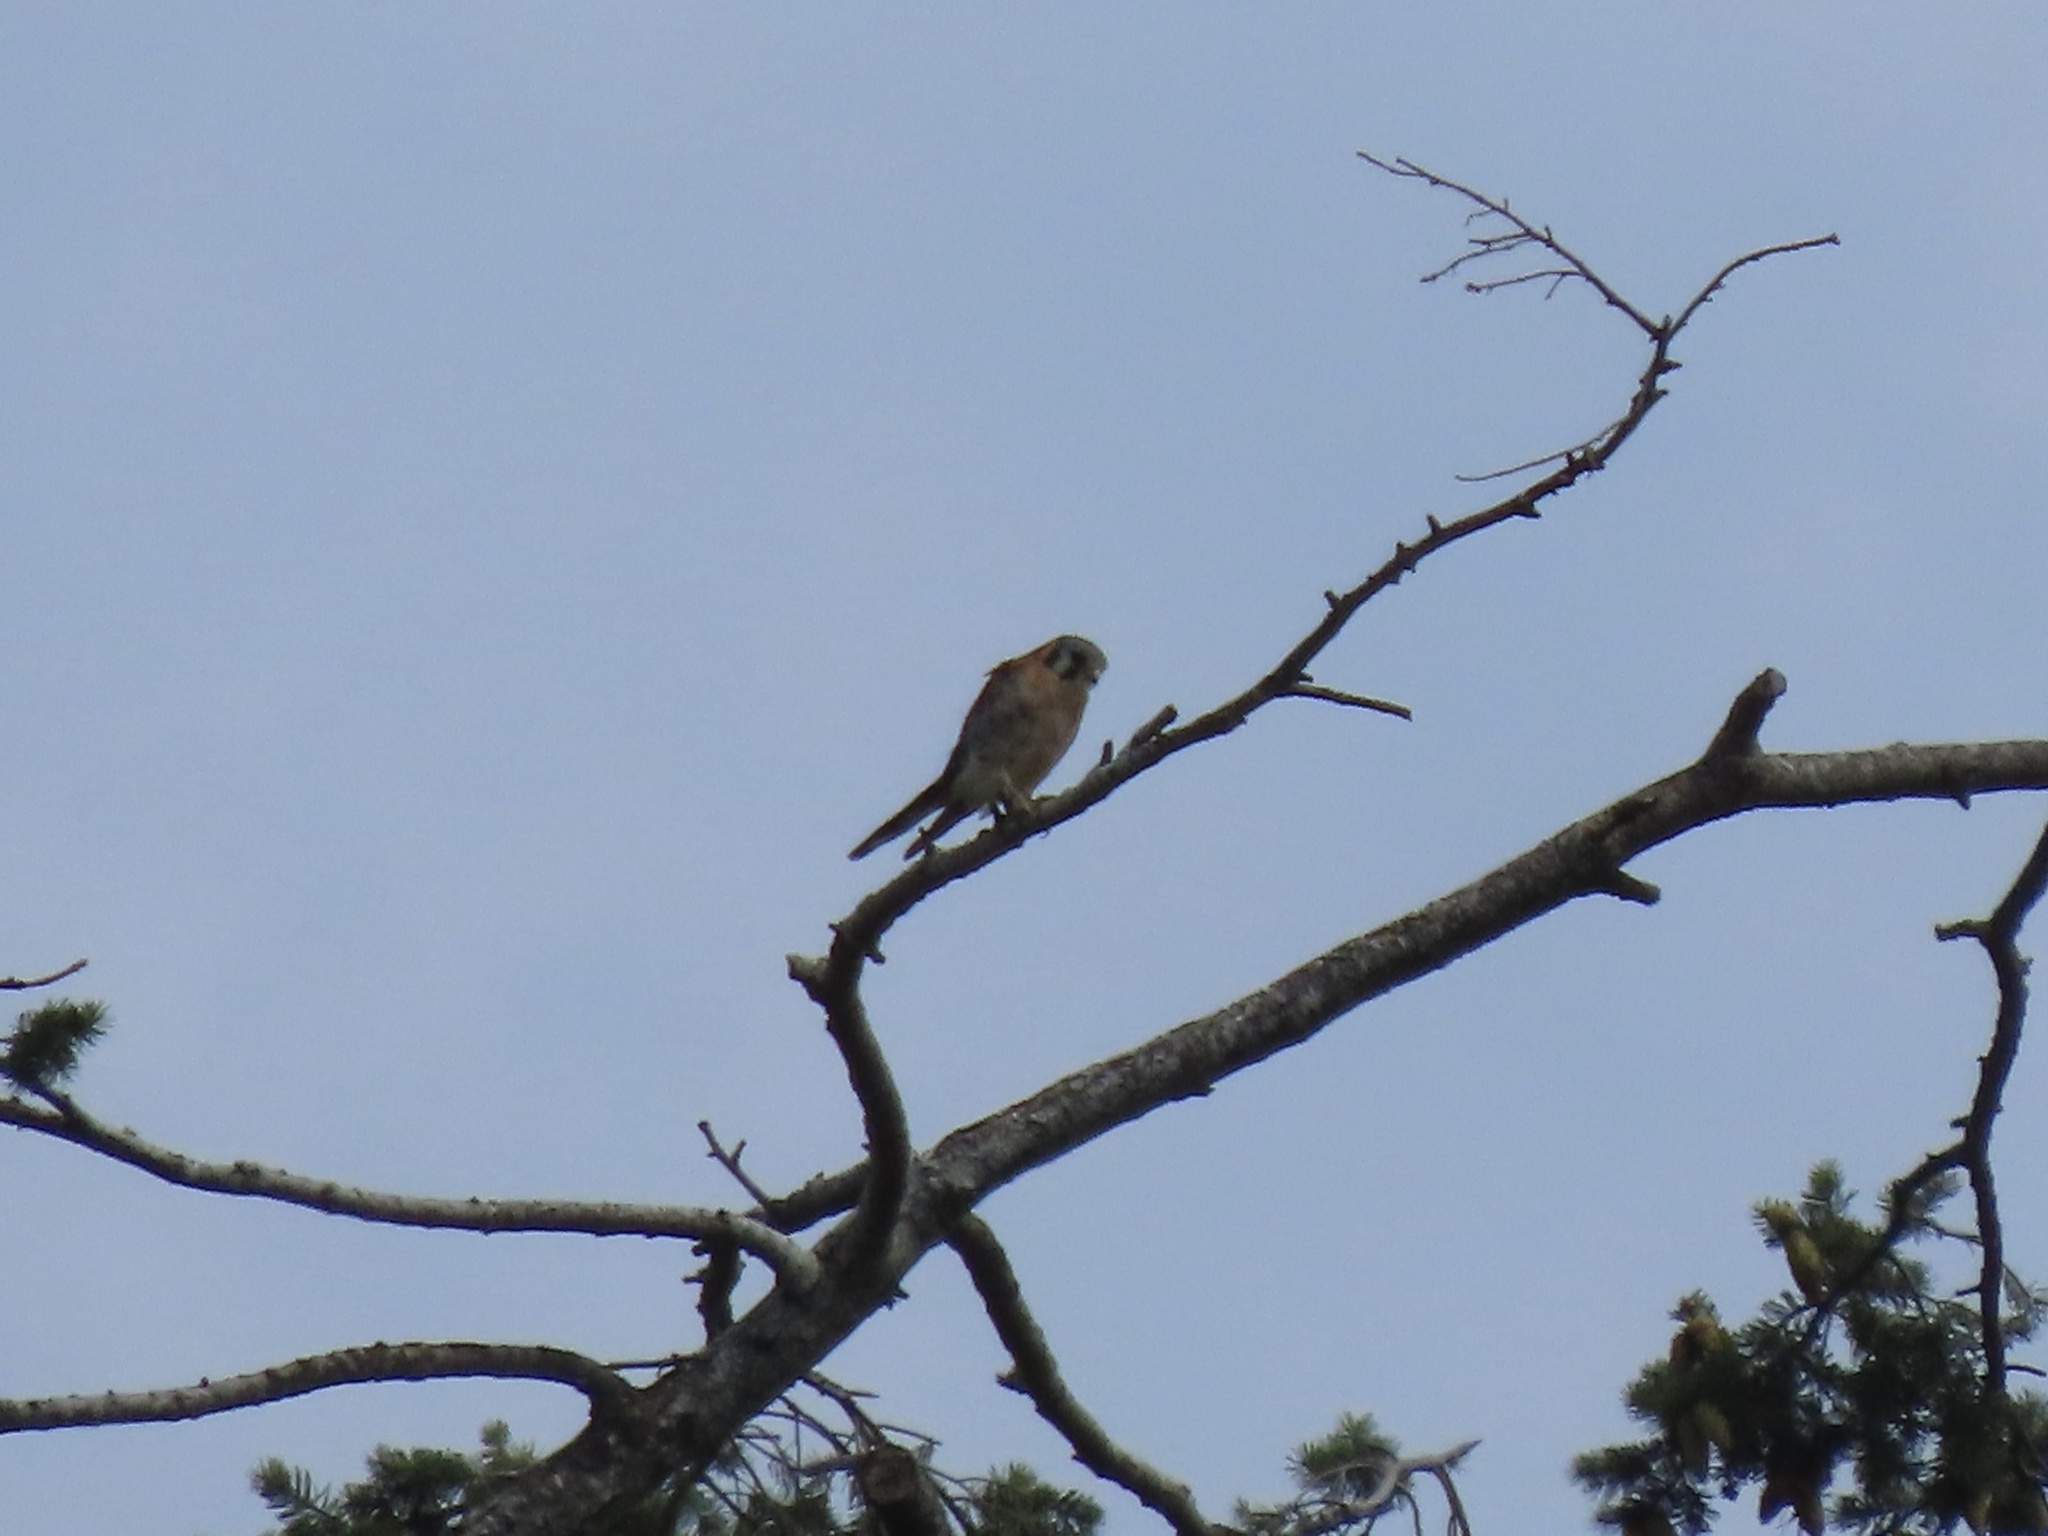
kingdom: Animalia
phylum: Chordata
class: Aves
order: Falconiformes
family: Falconidae
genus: Falco
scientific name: Falco sparverius
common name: American kestrel
